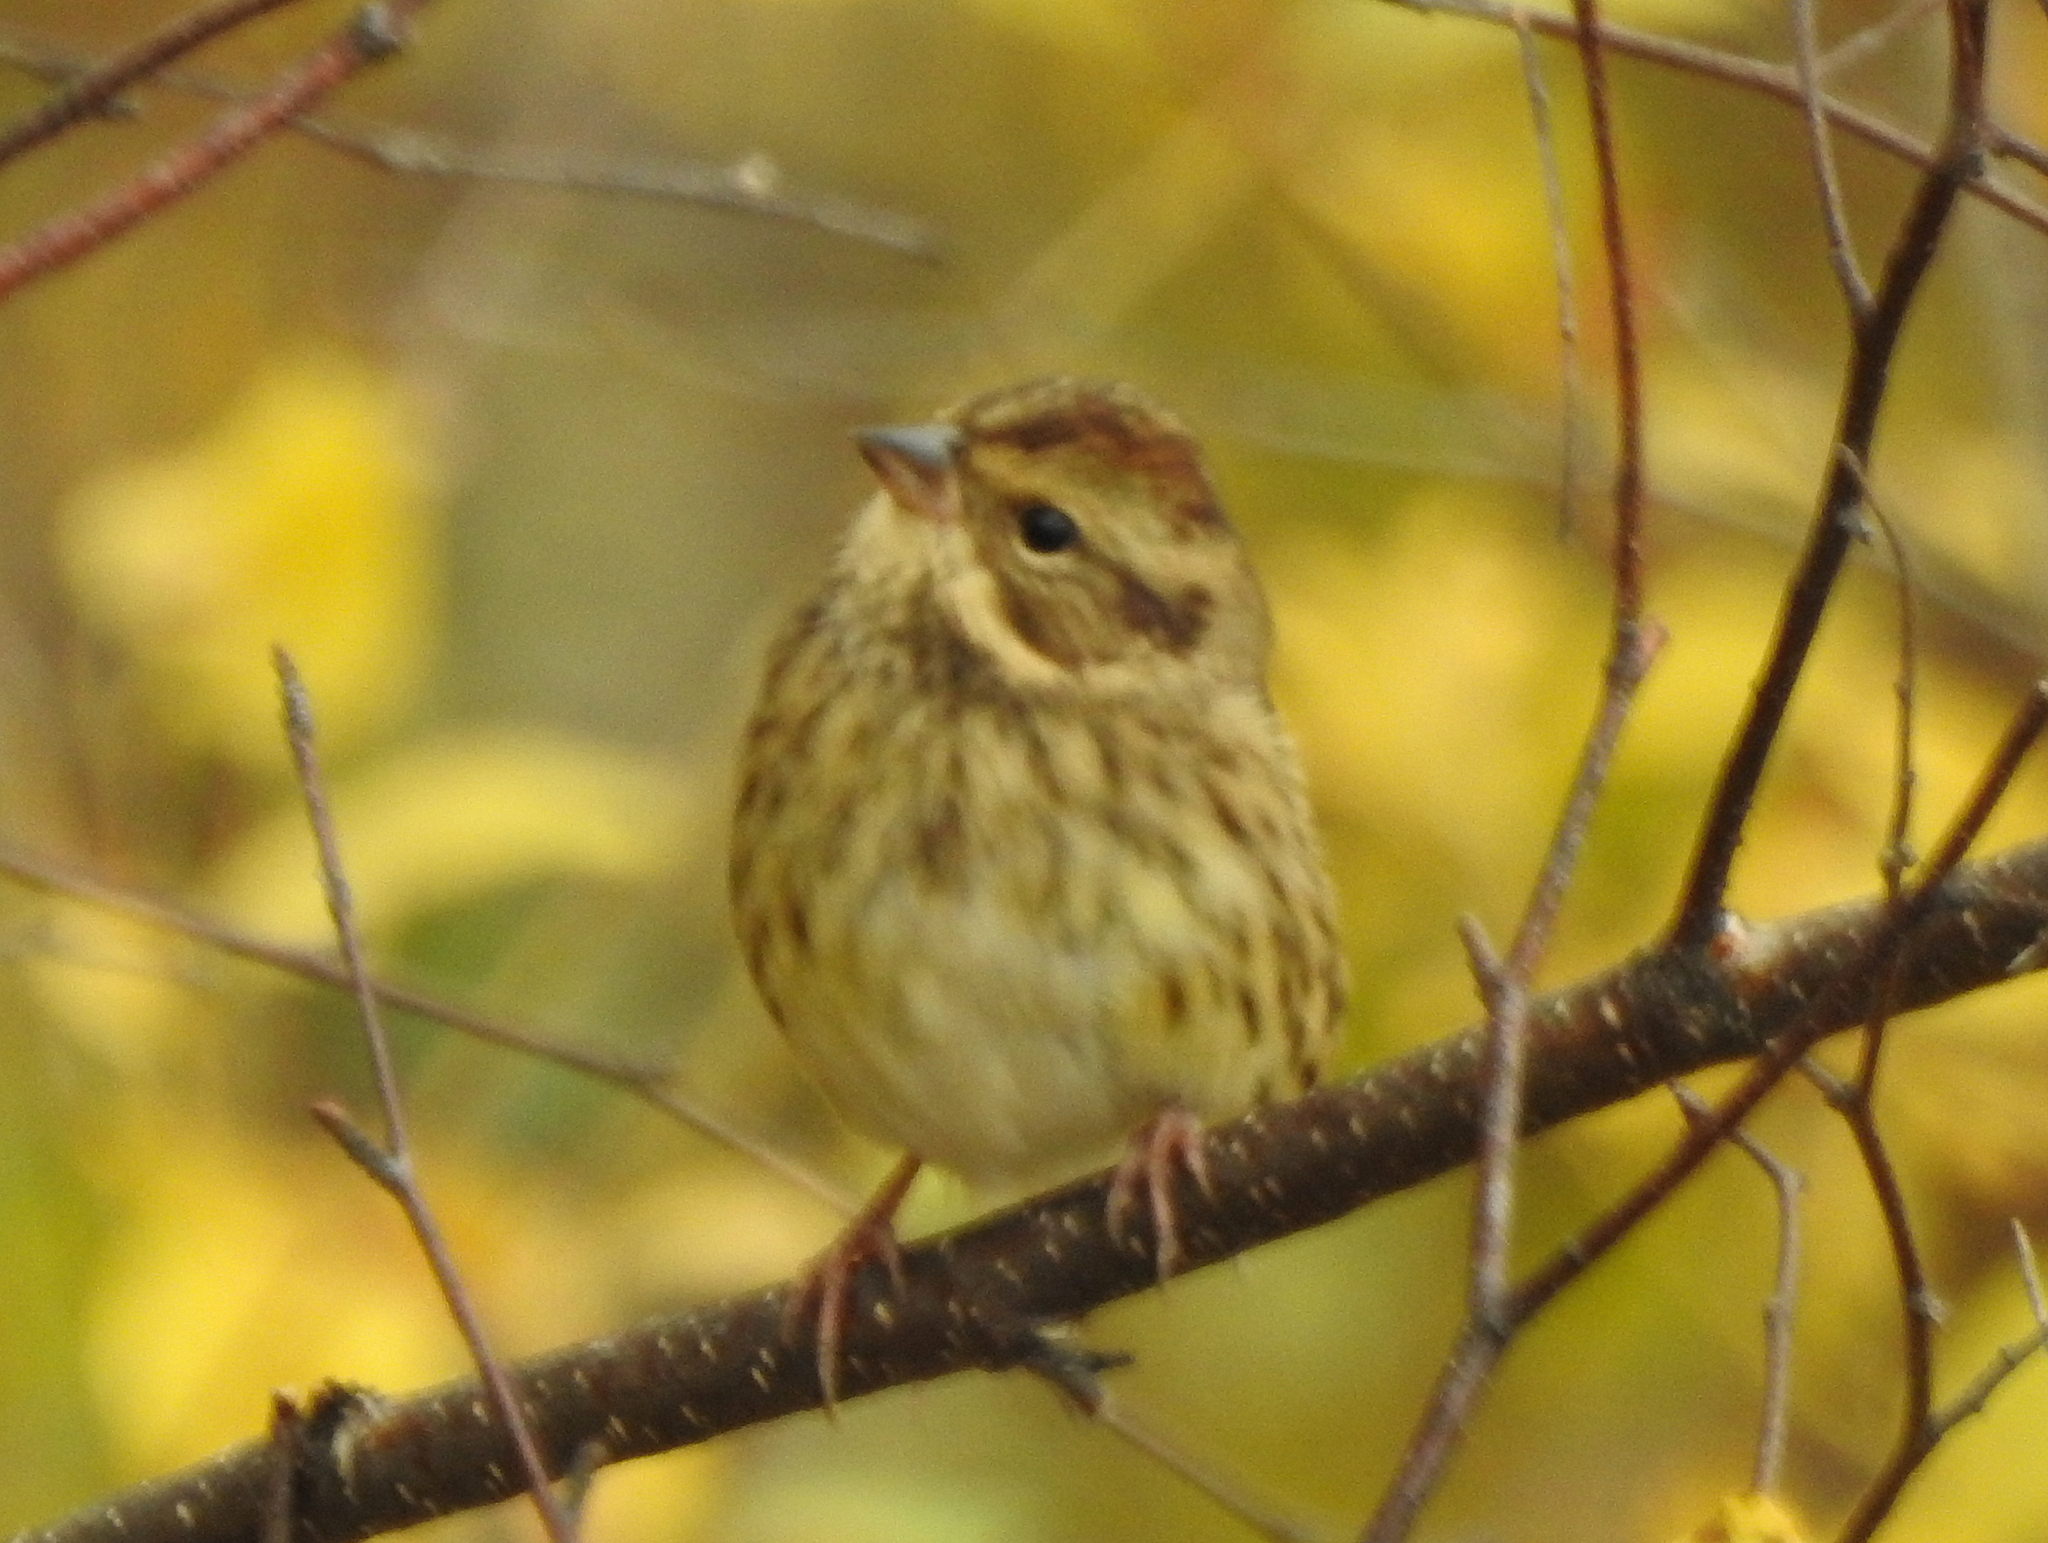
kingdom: Animalia
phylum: Chordata
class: Aves
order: Passeriformes
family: Emberizidae
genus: Emberiza
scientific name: Emberiza spodocephala
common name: Black-faced bunting
